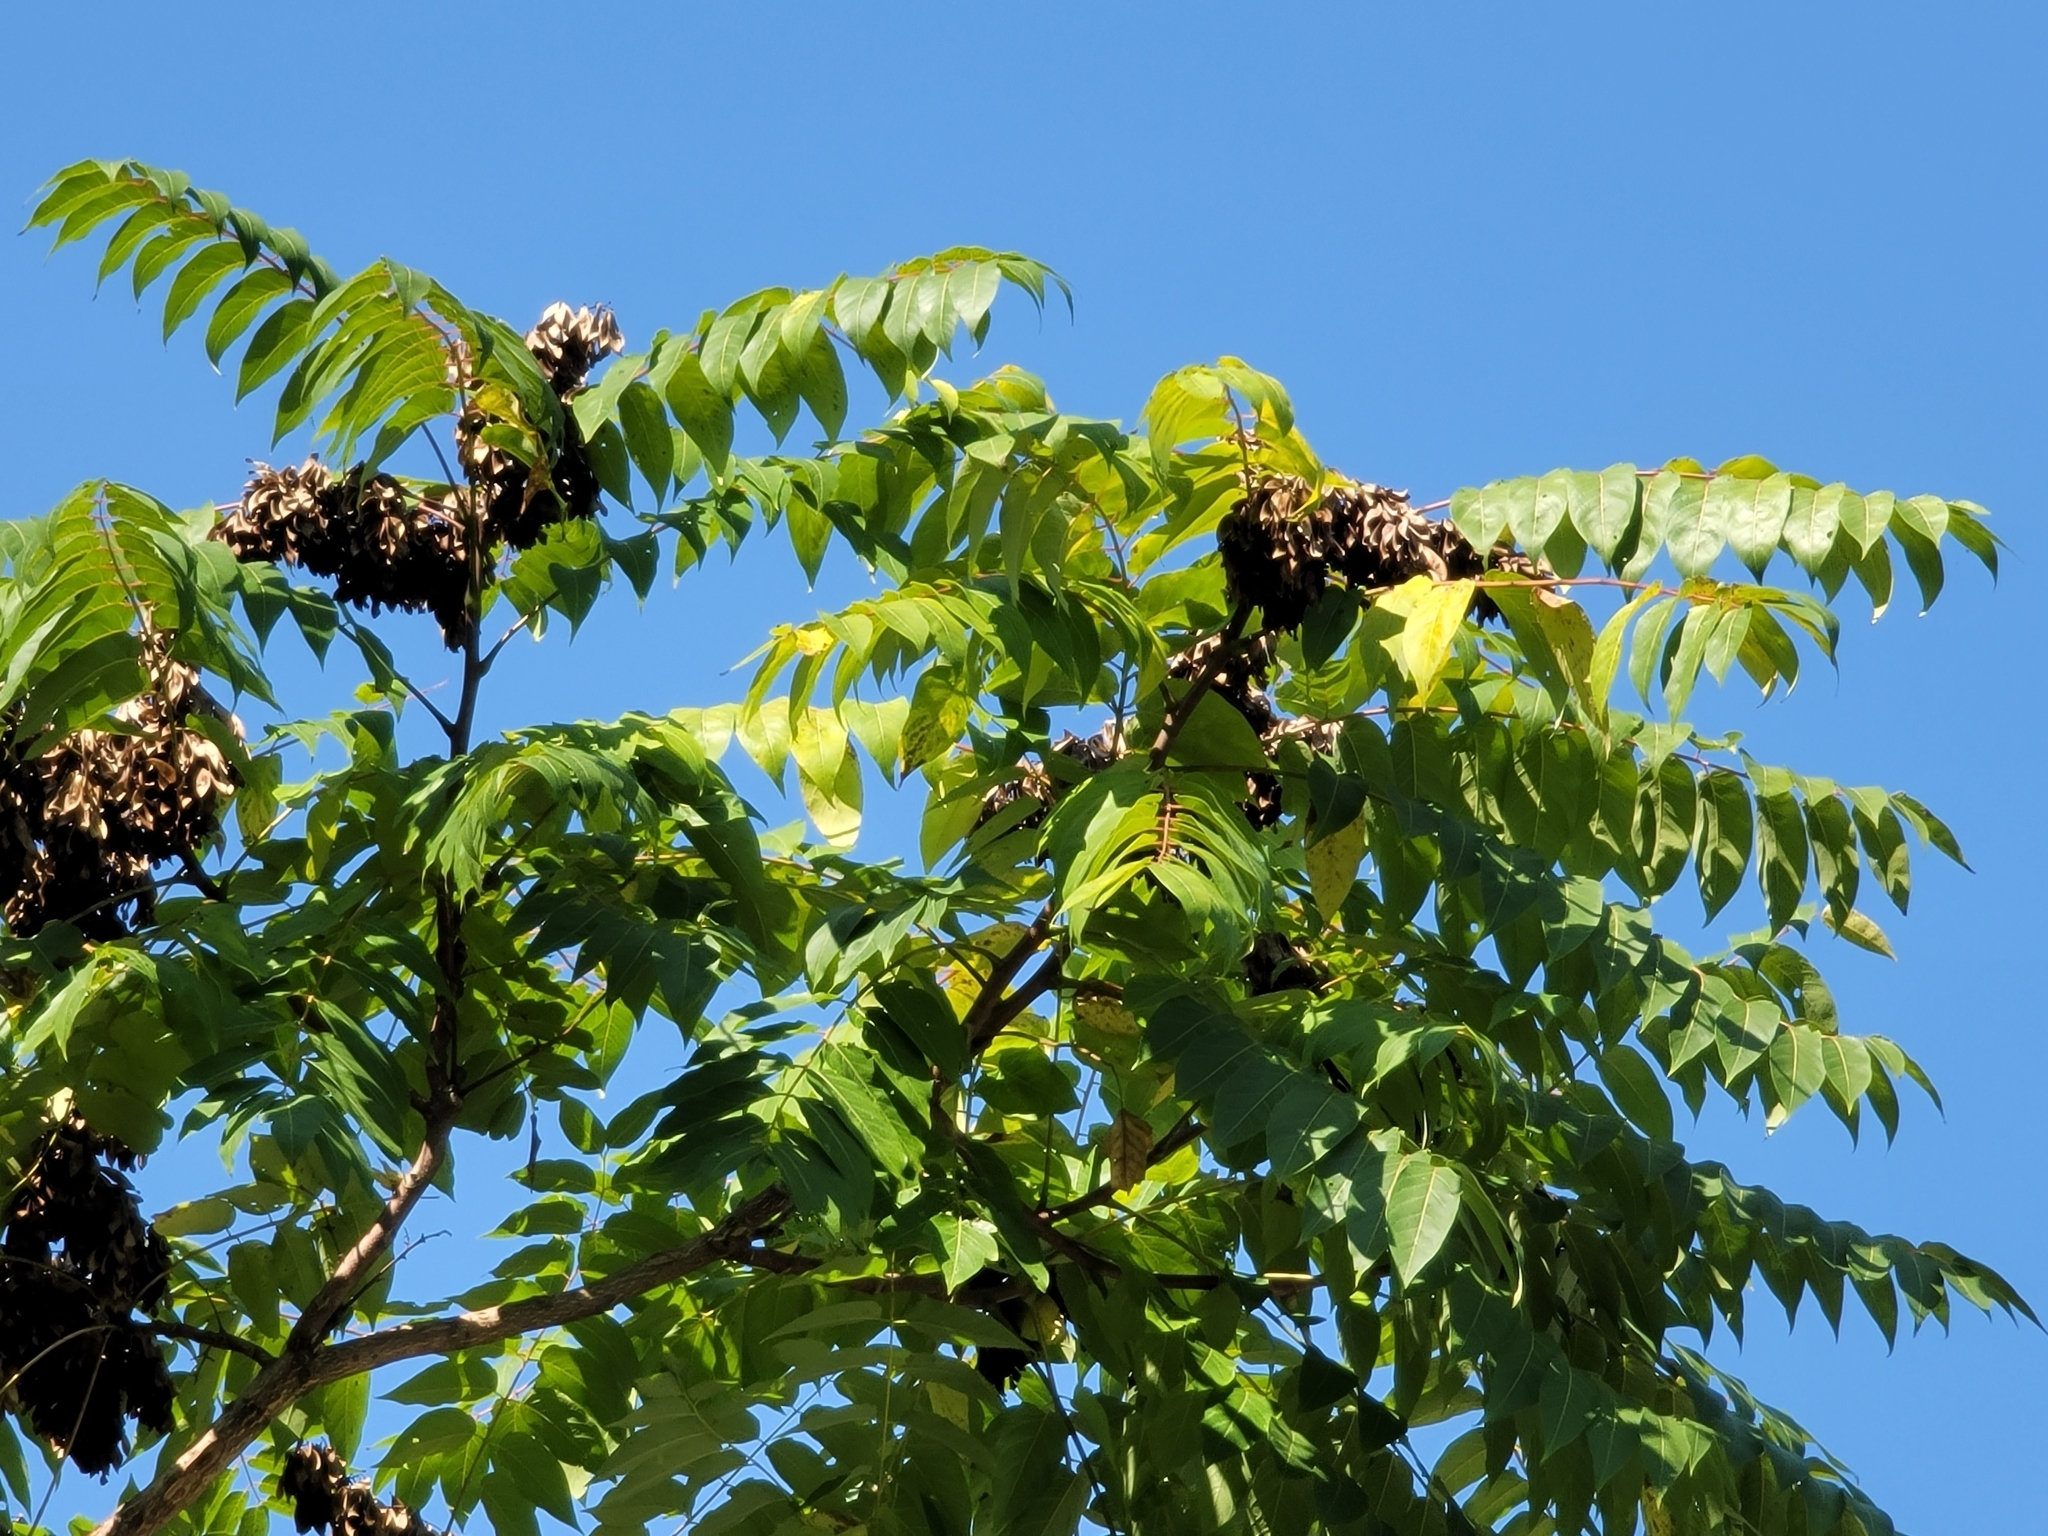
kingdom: Plantae
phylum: Tracheophyta
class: Magnoliopsida
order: Sapindales
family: Simaroubaceae
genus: Ailanthus
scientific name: Ailanthus altissima
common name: Tree-of-heaven
